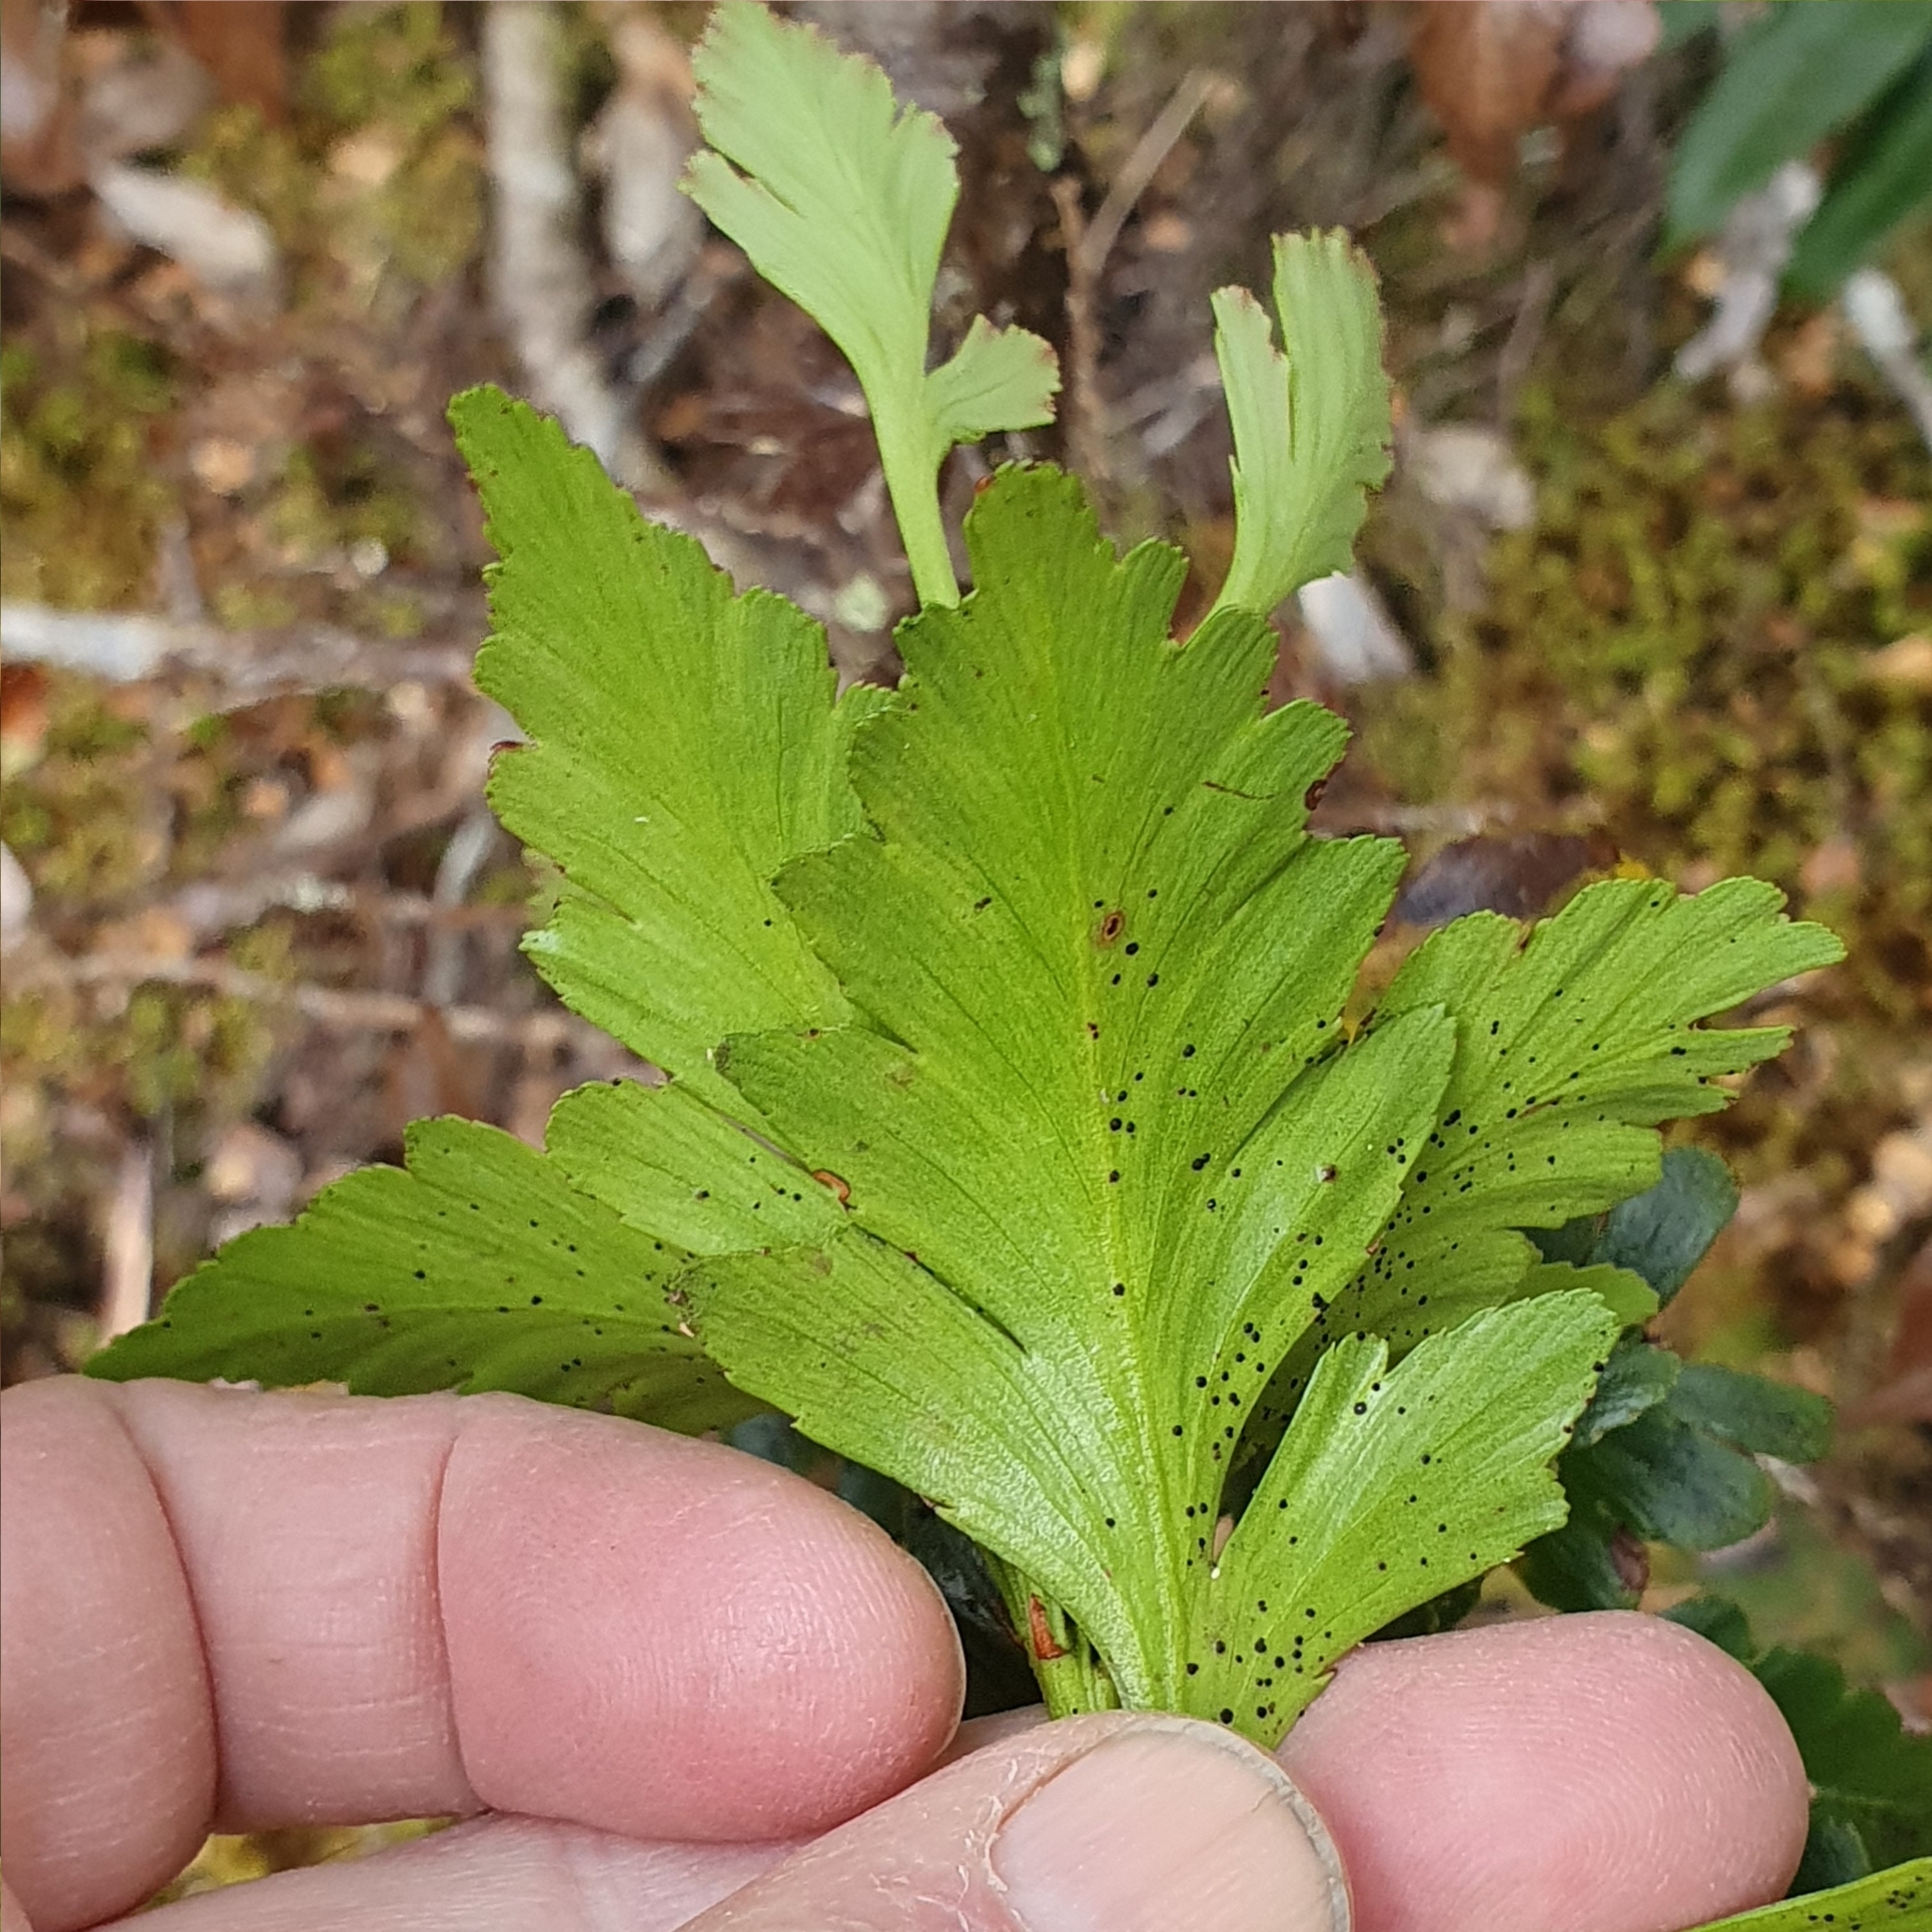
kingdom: Plantae
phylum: Tracheophyta
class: Pinopsida
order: Pinales
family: Phyllocladaceae
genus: Phyllocladus
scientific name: Phyllocladus aspleniifolius
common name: Celery-top pine
